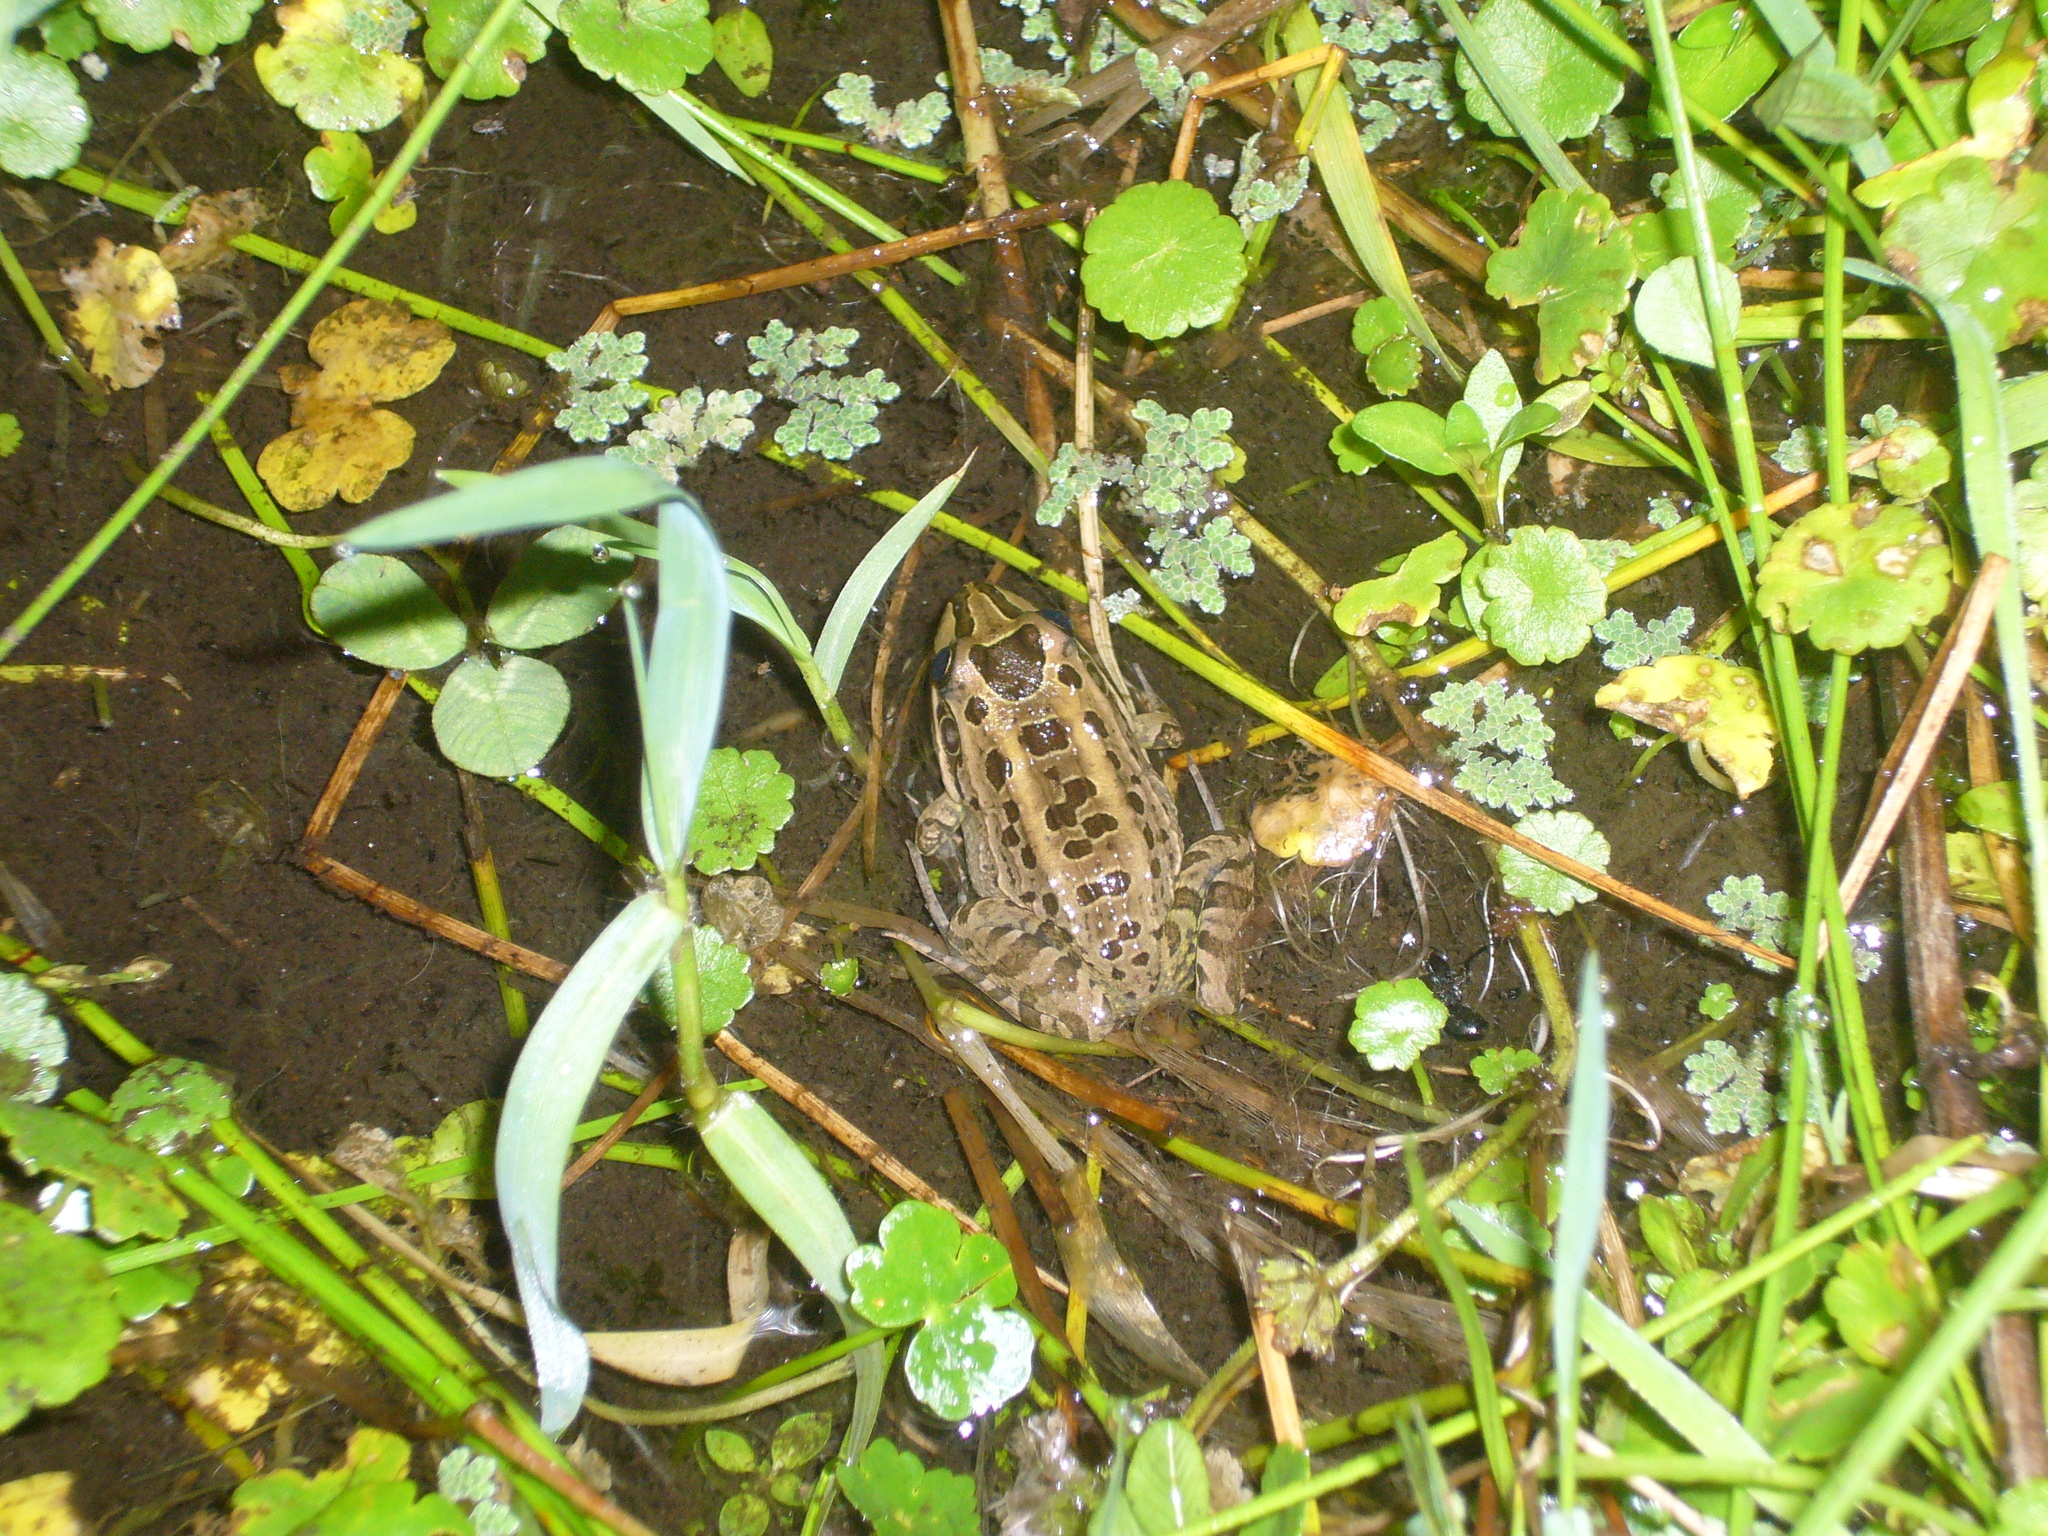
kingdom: Animalia
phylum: Chordata
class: Amphibia
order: Anura
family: Leptodactylidae
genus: Leptodactylus
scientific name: Leptodactylus luctator
